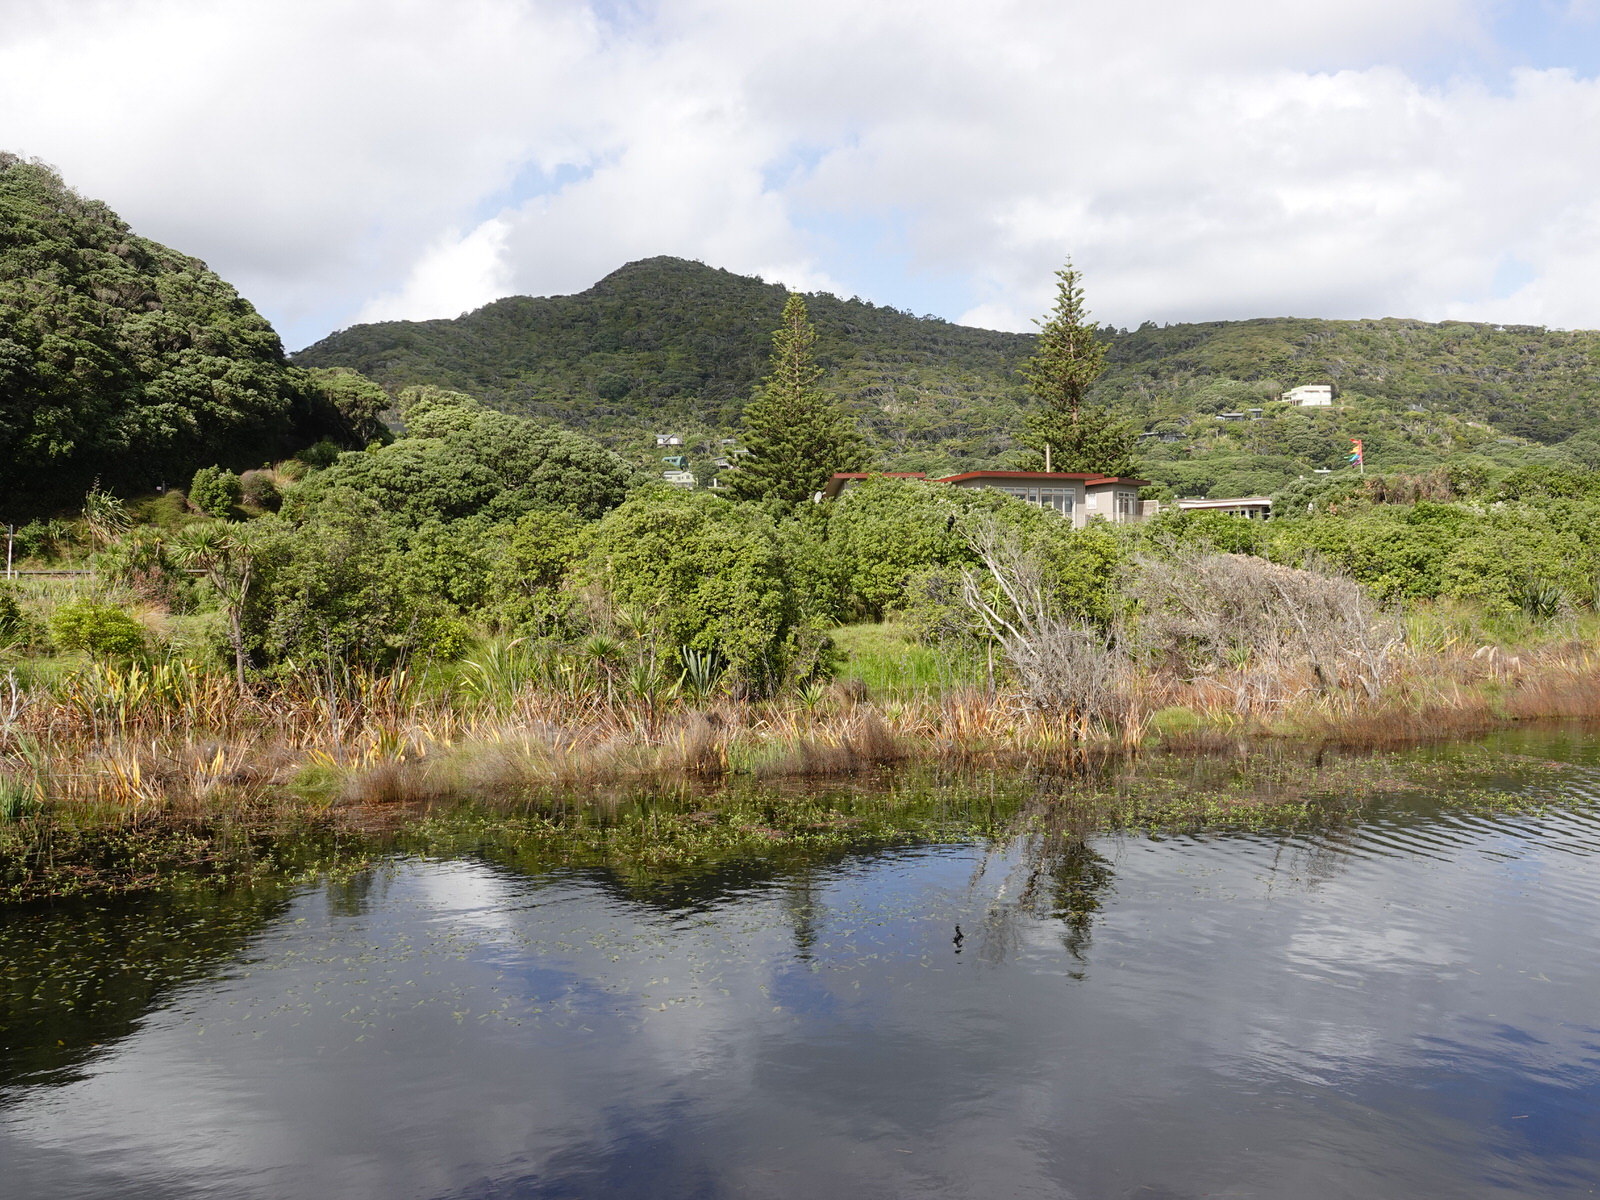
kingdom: Animalia
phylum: Chordata
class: Aves
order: Suliformes
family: Phalacrocoracidae
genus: Microcarbo
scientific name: Microcarbo melanoleucos
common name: Little pied cormorant
